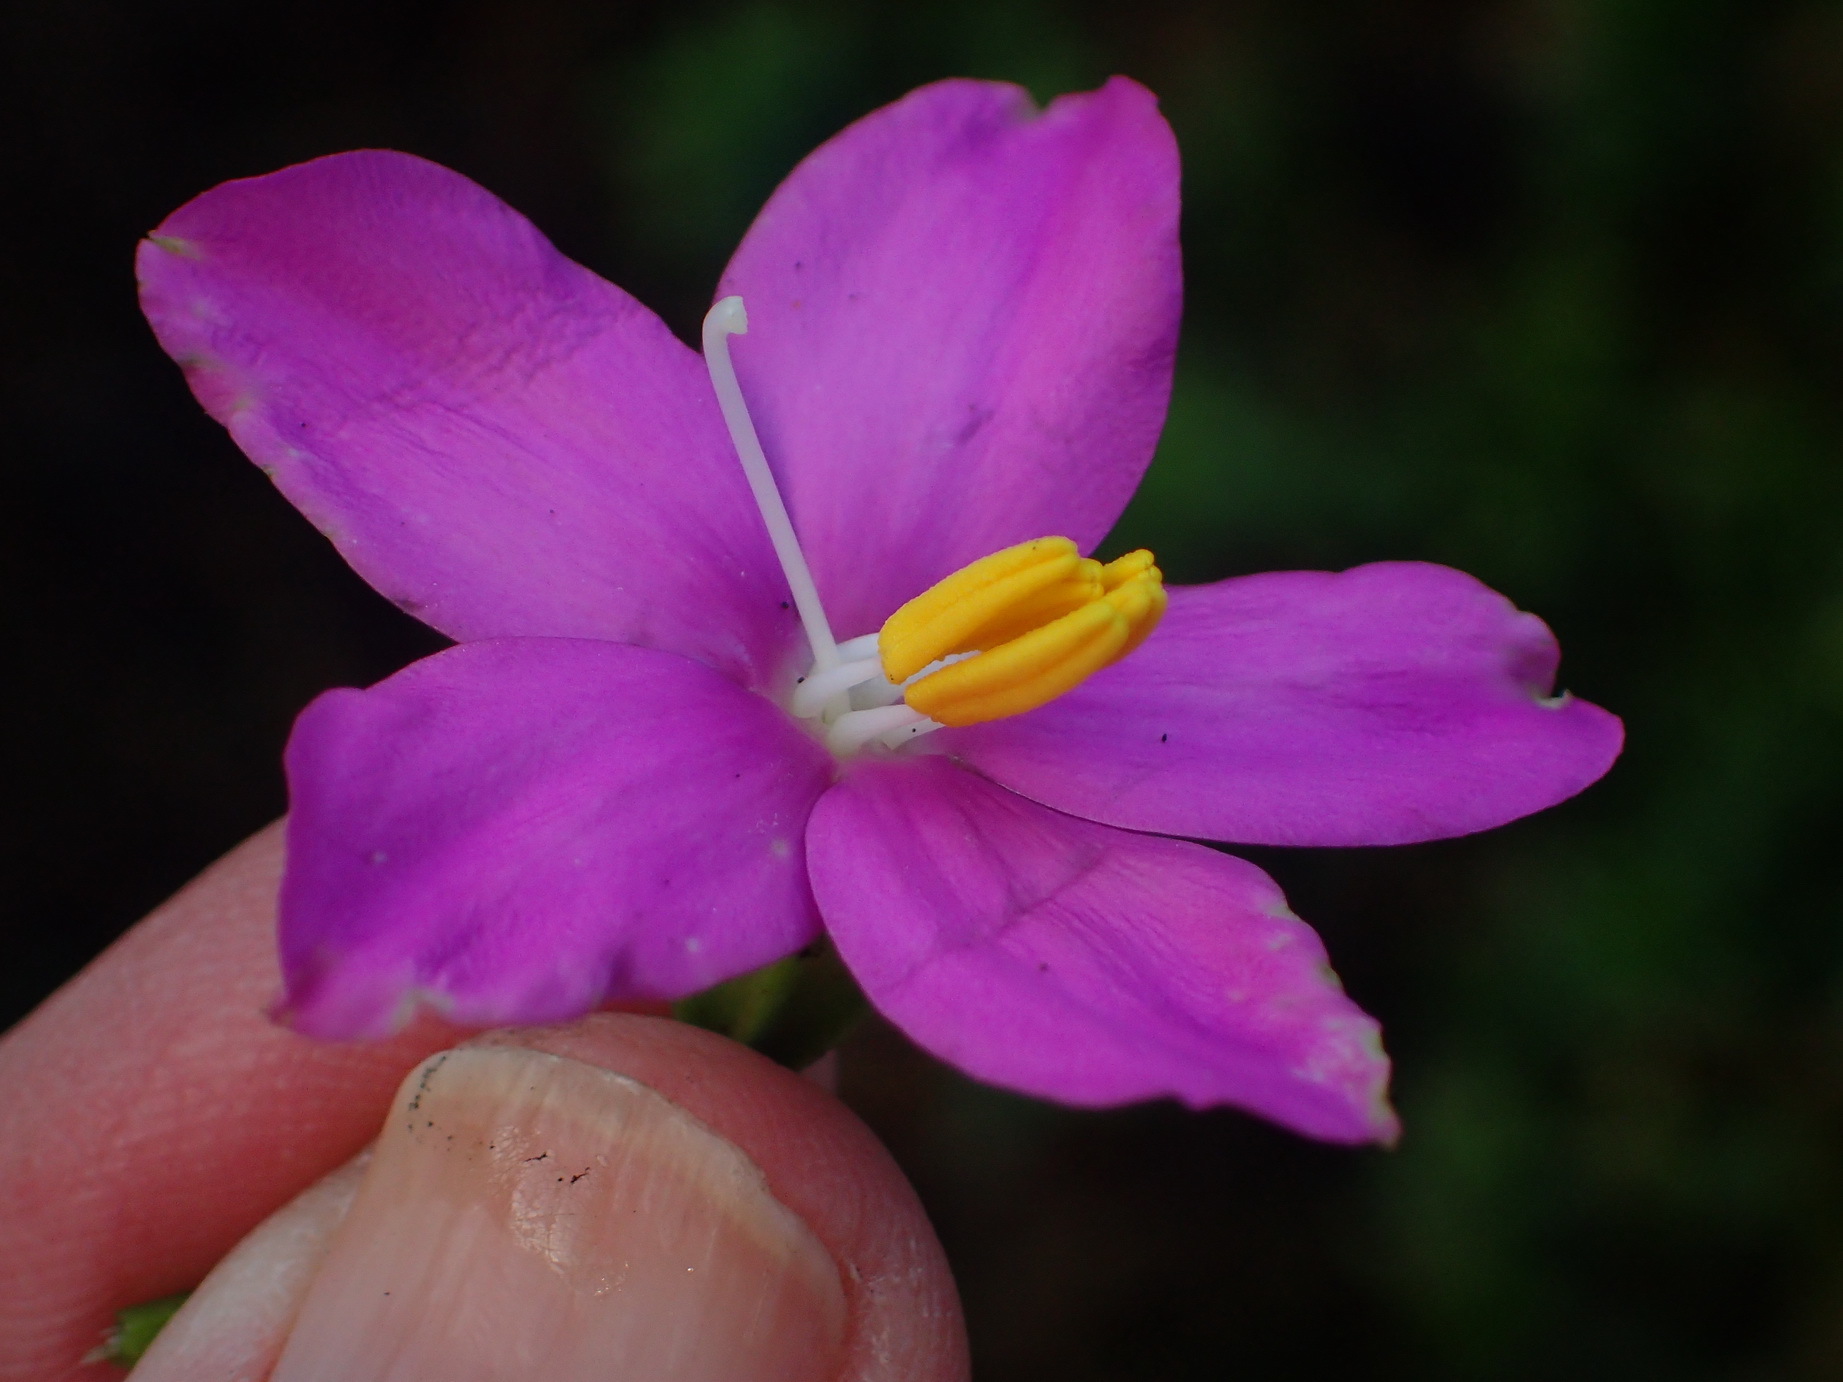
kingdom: Plantae
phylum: Tracheophyta
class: Magnoliopsida
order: Gentianales
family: Gentianaceae
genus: Chironia
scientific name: Chironia tetragona
